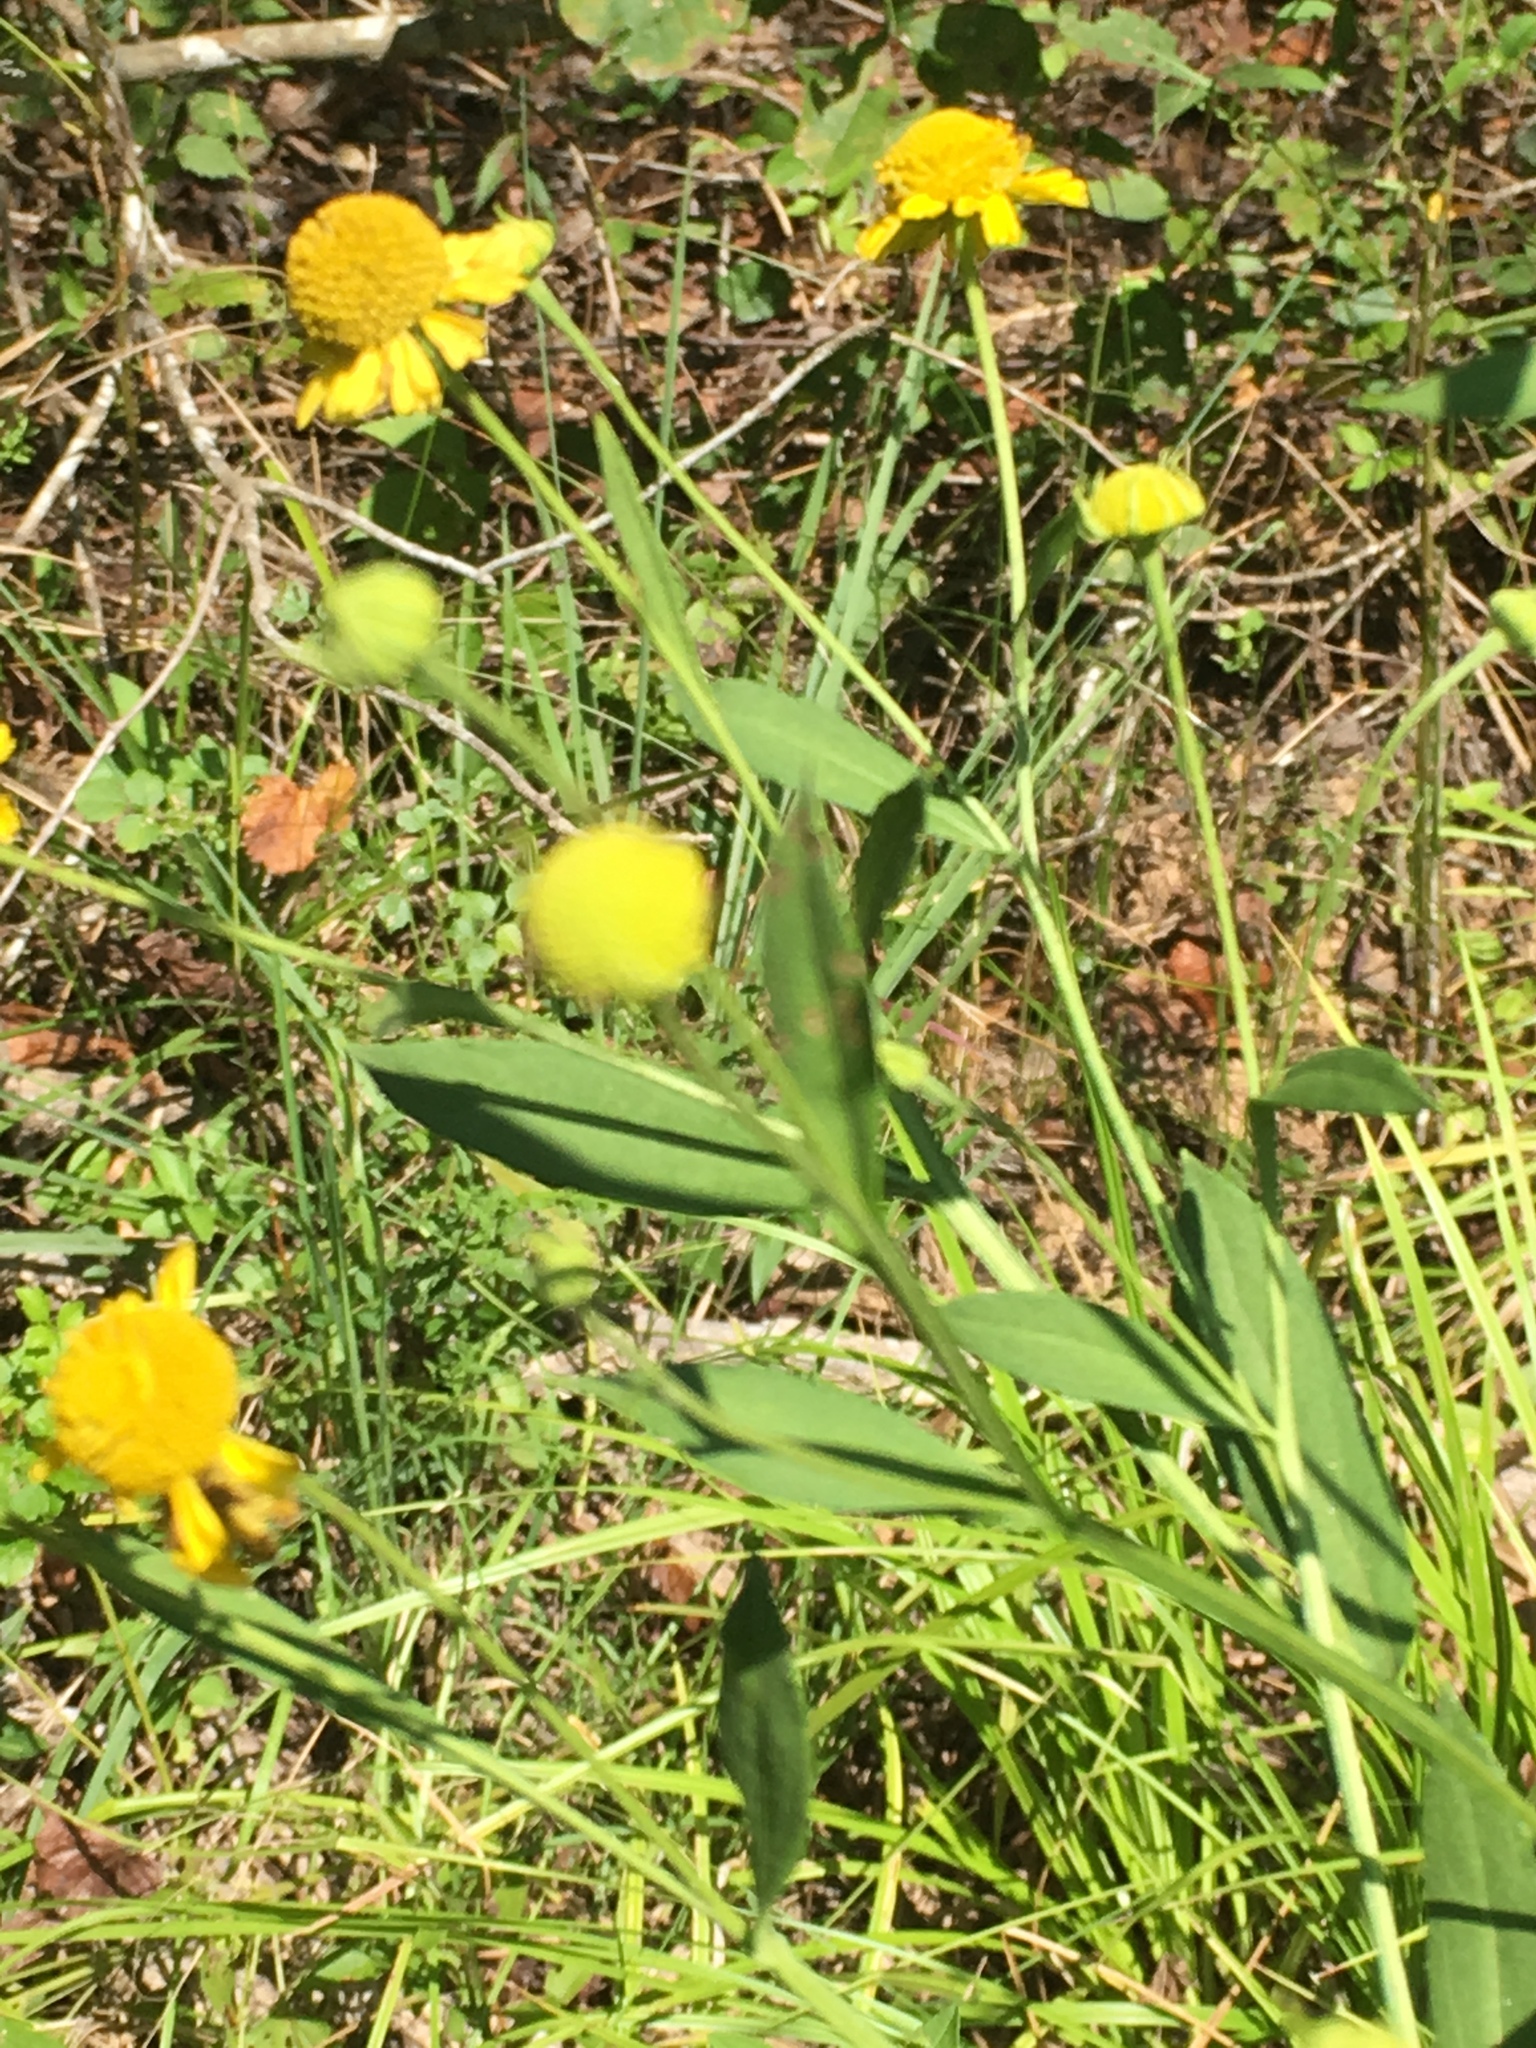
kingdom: Plantae
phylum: Tracheophyta
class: Magnoliopsida
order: Asterales
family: Asteraceae
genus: Helenium
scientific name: Helenium autumnale
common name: Sneezeweed
